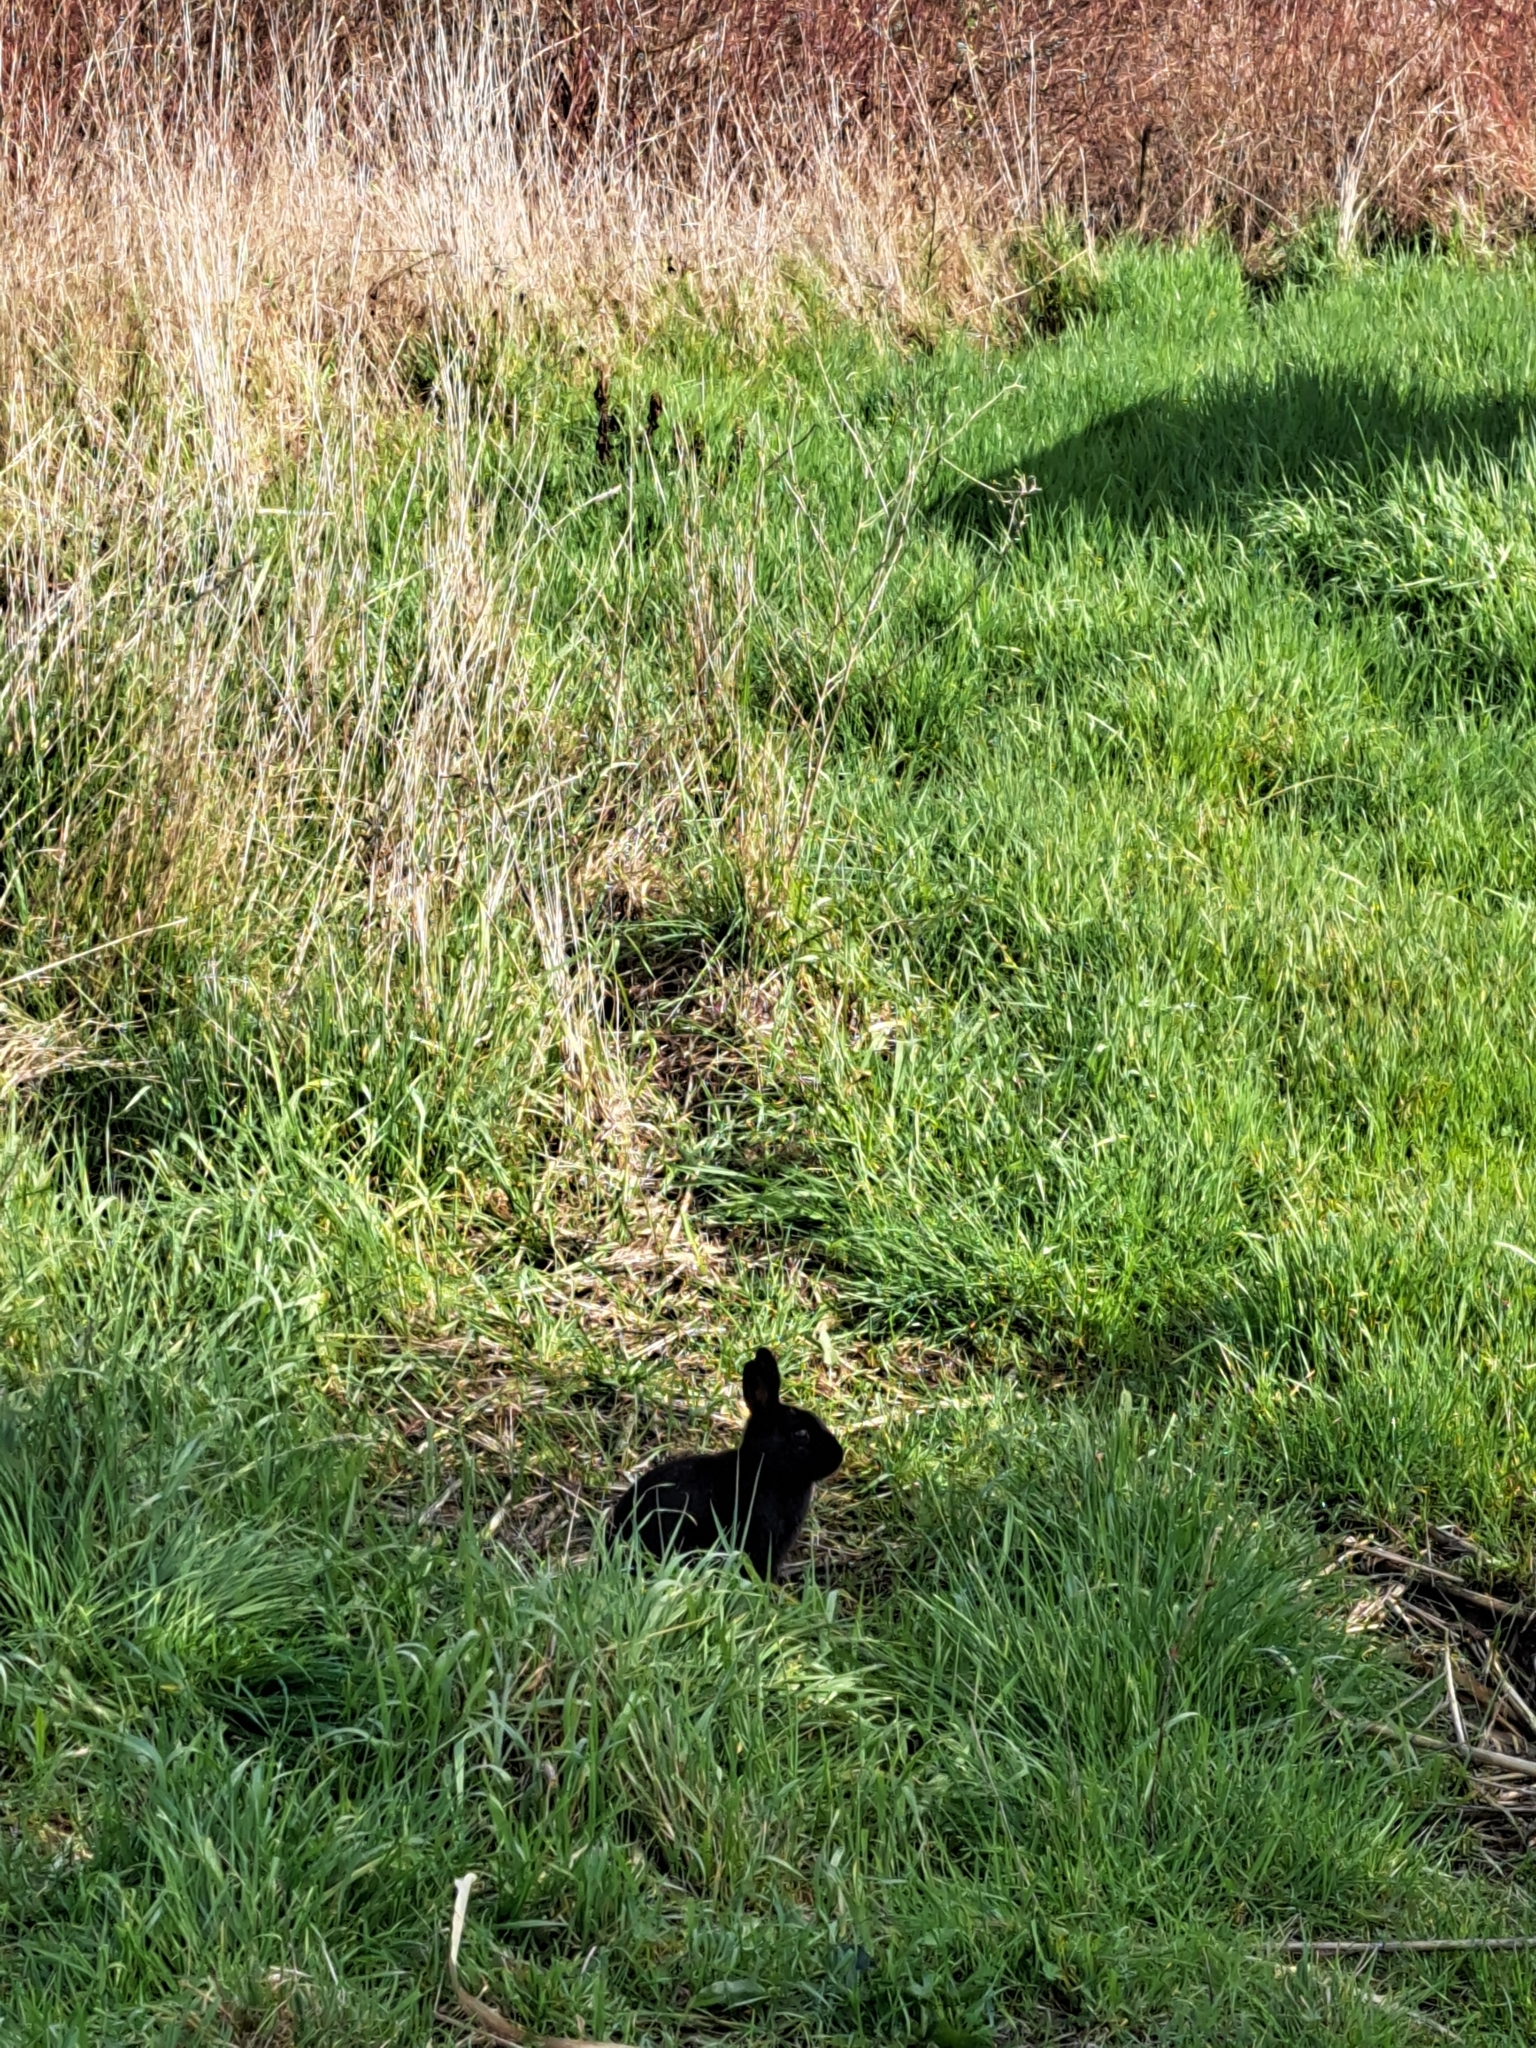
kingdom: Animalia
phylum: Chordata
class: Mammalia
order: Lagomorpha
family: Leporidae
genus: Oryctolagus
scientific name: Oryctolagus cuniculus
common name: European rabbit
